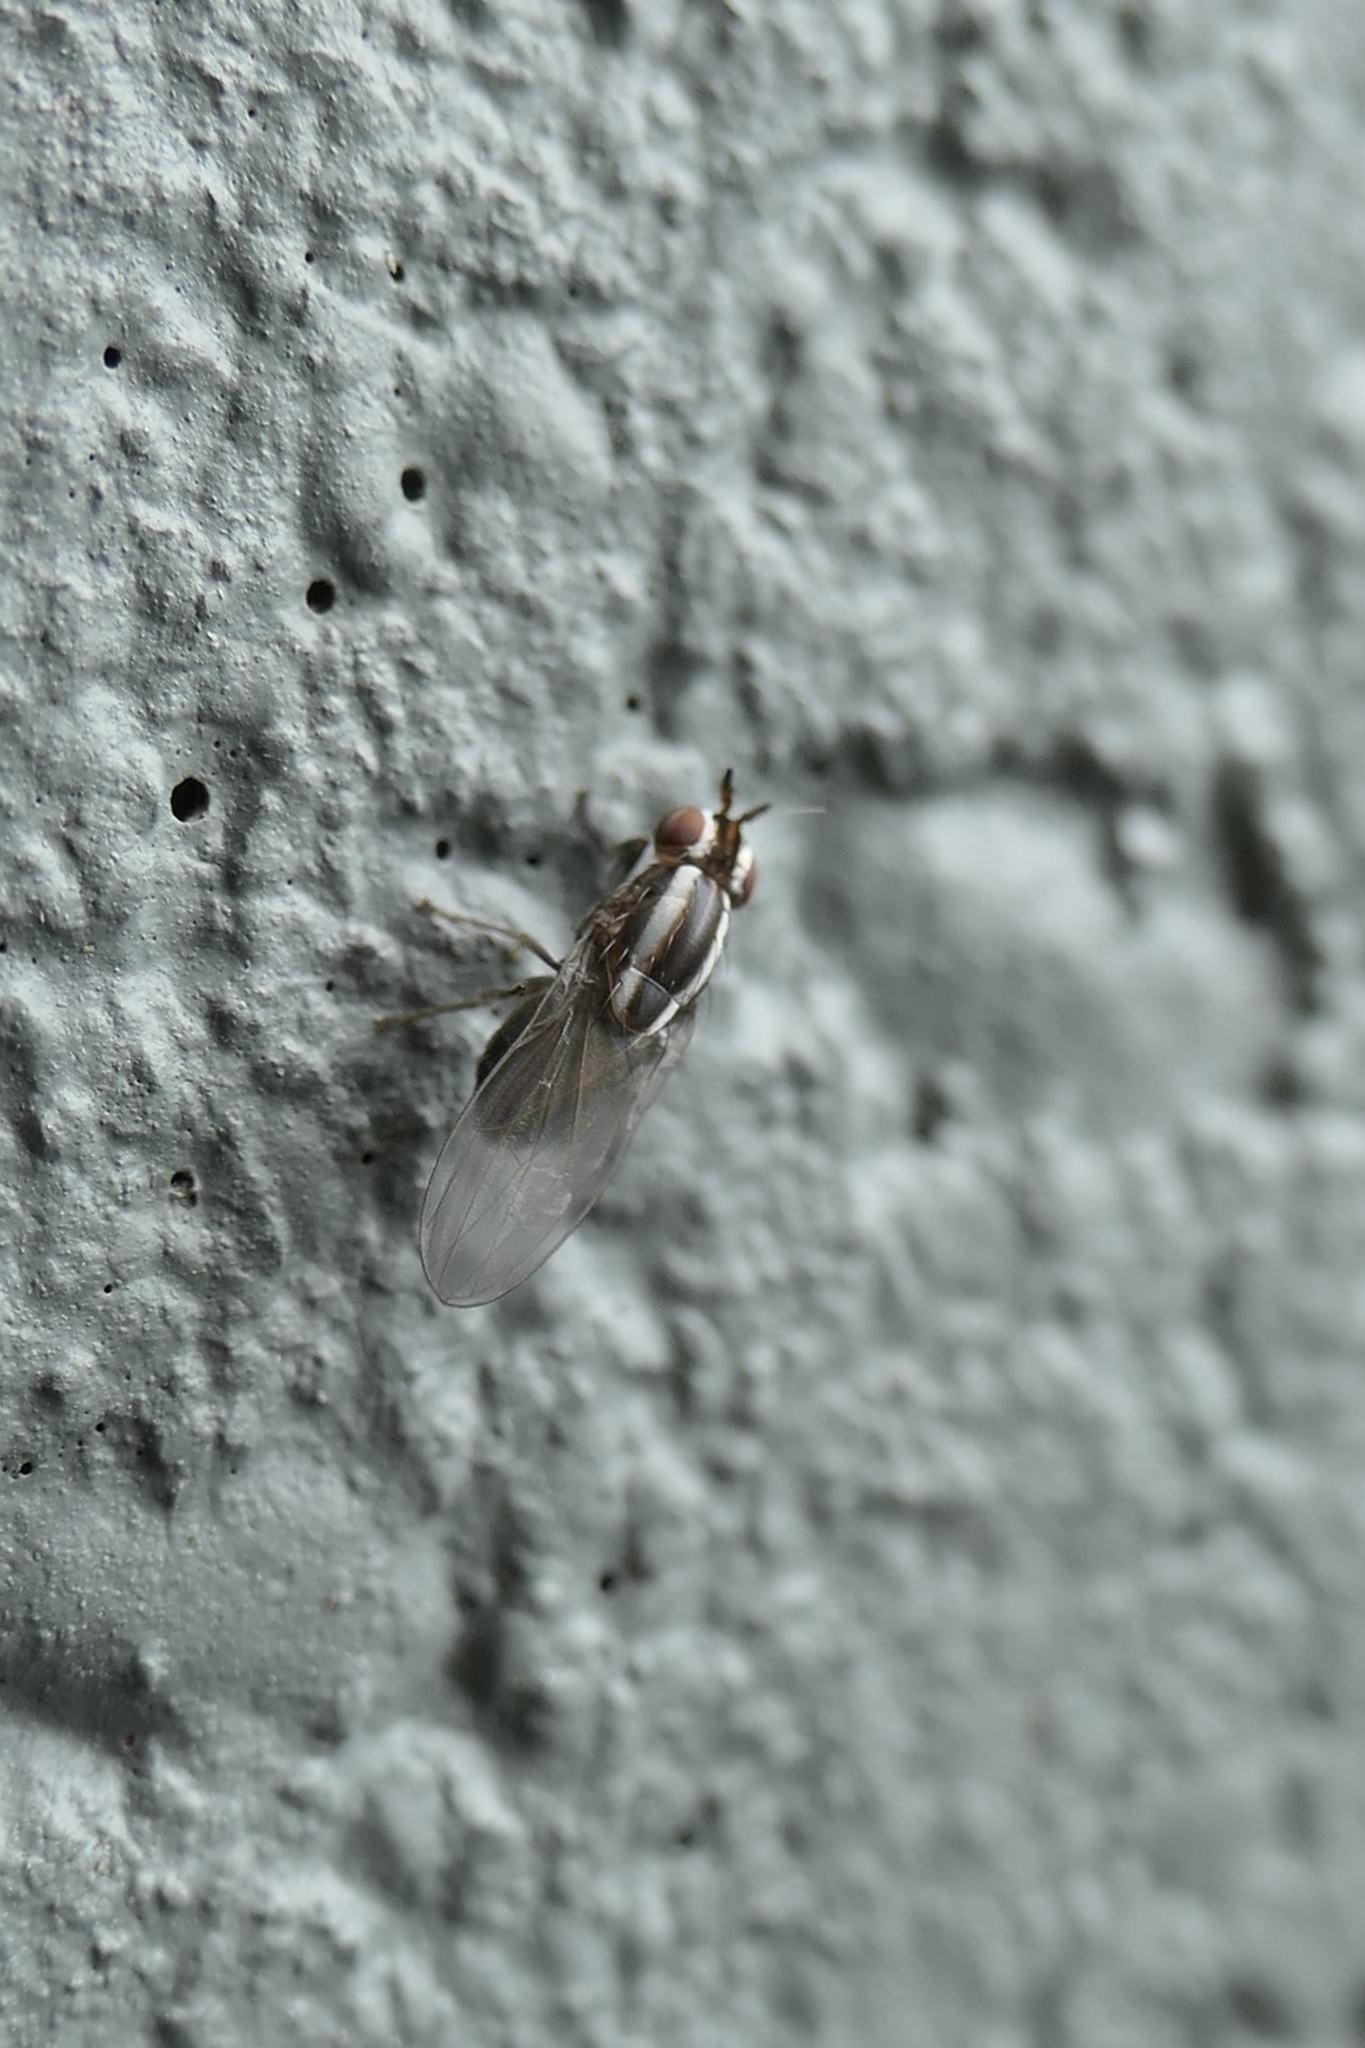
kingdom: Animalia
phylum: Arthropoda
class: Insecta
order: Diptera
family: Lauxaniidae
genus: Poecilohetaerella
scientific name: Poecilohetaerella dubiosa
